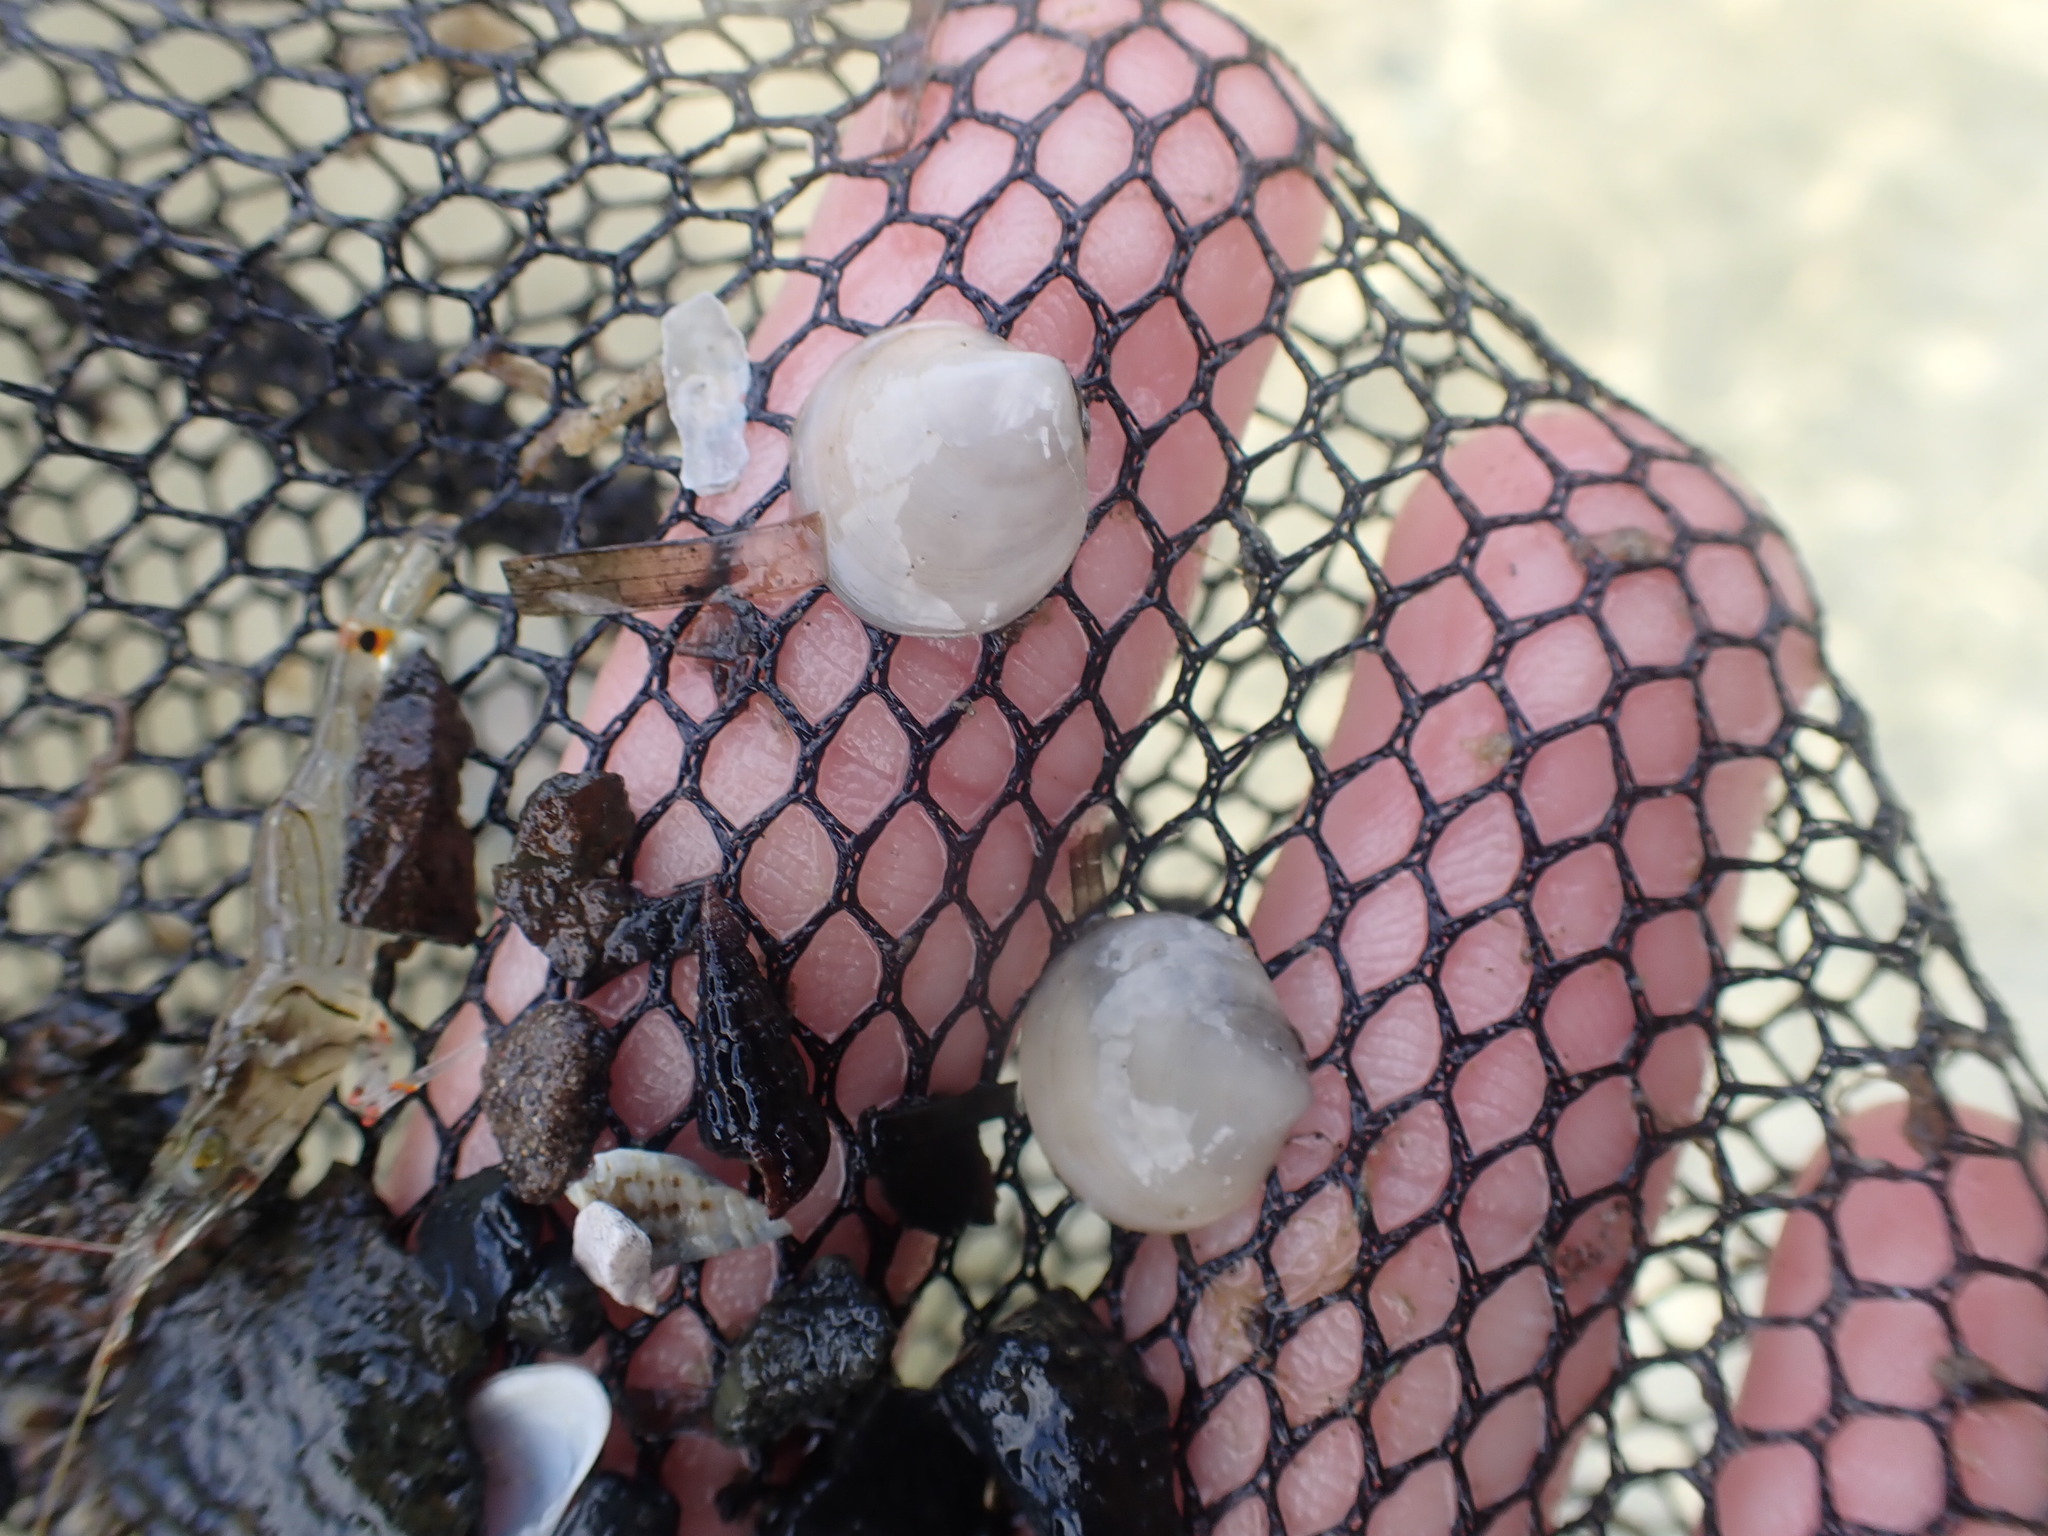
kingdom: Animalia
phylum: Mollusca
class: Bivalvia
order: Venerida
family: Ungulinidae
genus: Zemysia
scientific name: Zemysia zelandica
